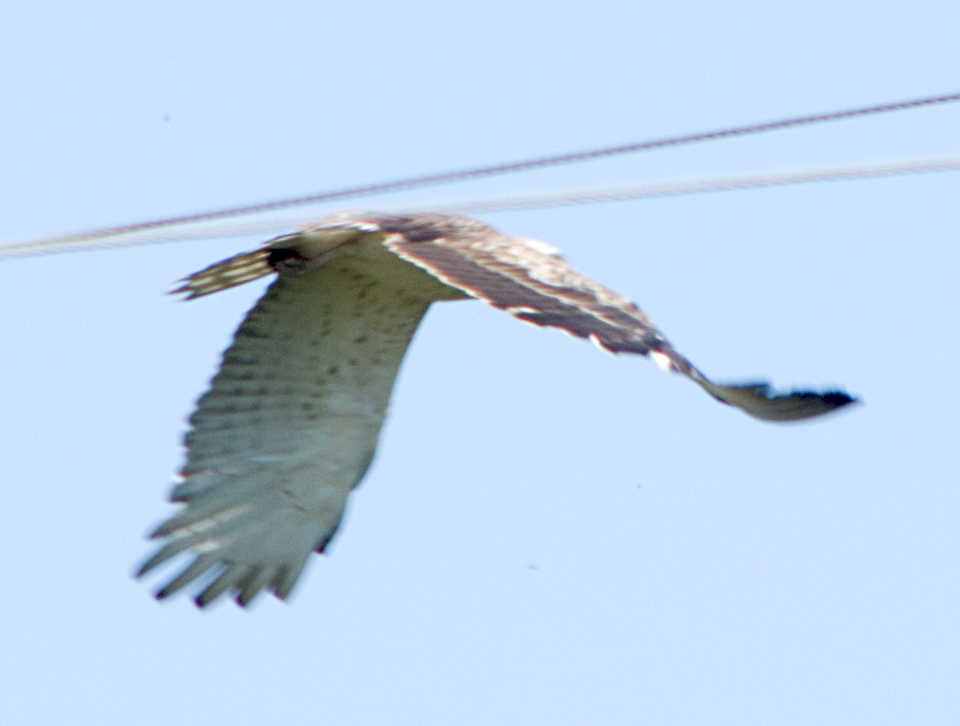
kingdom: Animalia
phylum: Chordata
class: Aves
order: Accipitriformes
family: Accipitridae
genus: Circaetus
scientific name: Circaetus gallicus
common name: Short-toed snake eagle
